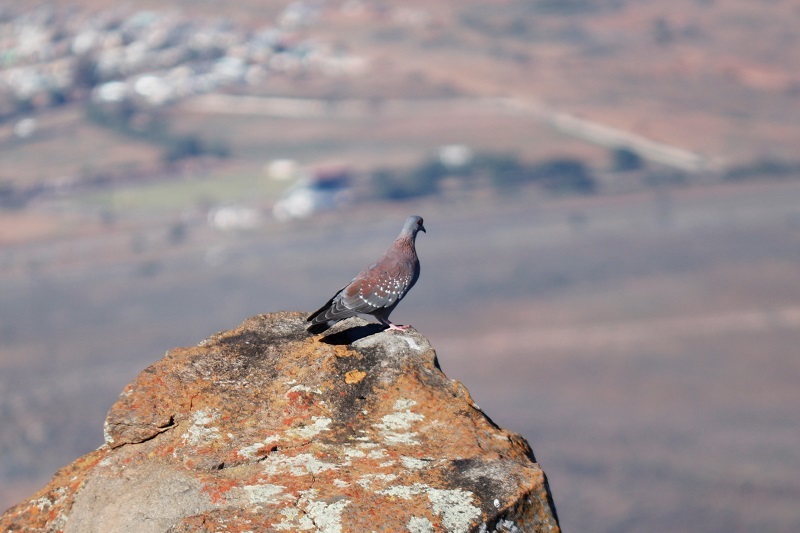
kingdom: Animalia
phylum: Chordata
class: Aves
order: Columbiformes
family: Columbidae
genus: Columba
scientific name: Columba guinea
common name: Speckled pigeon
